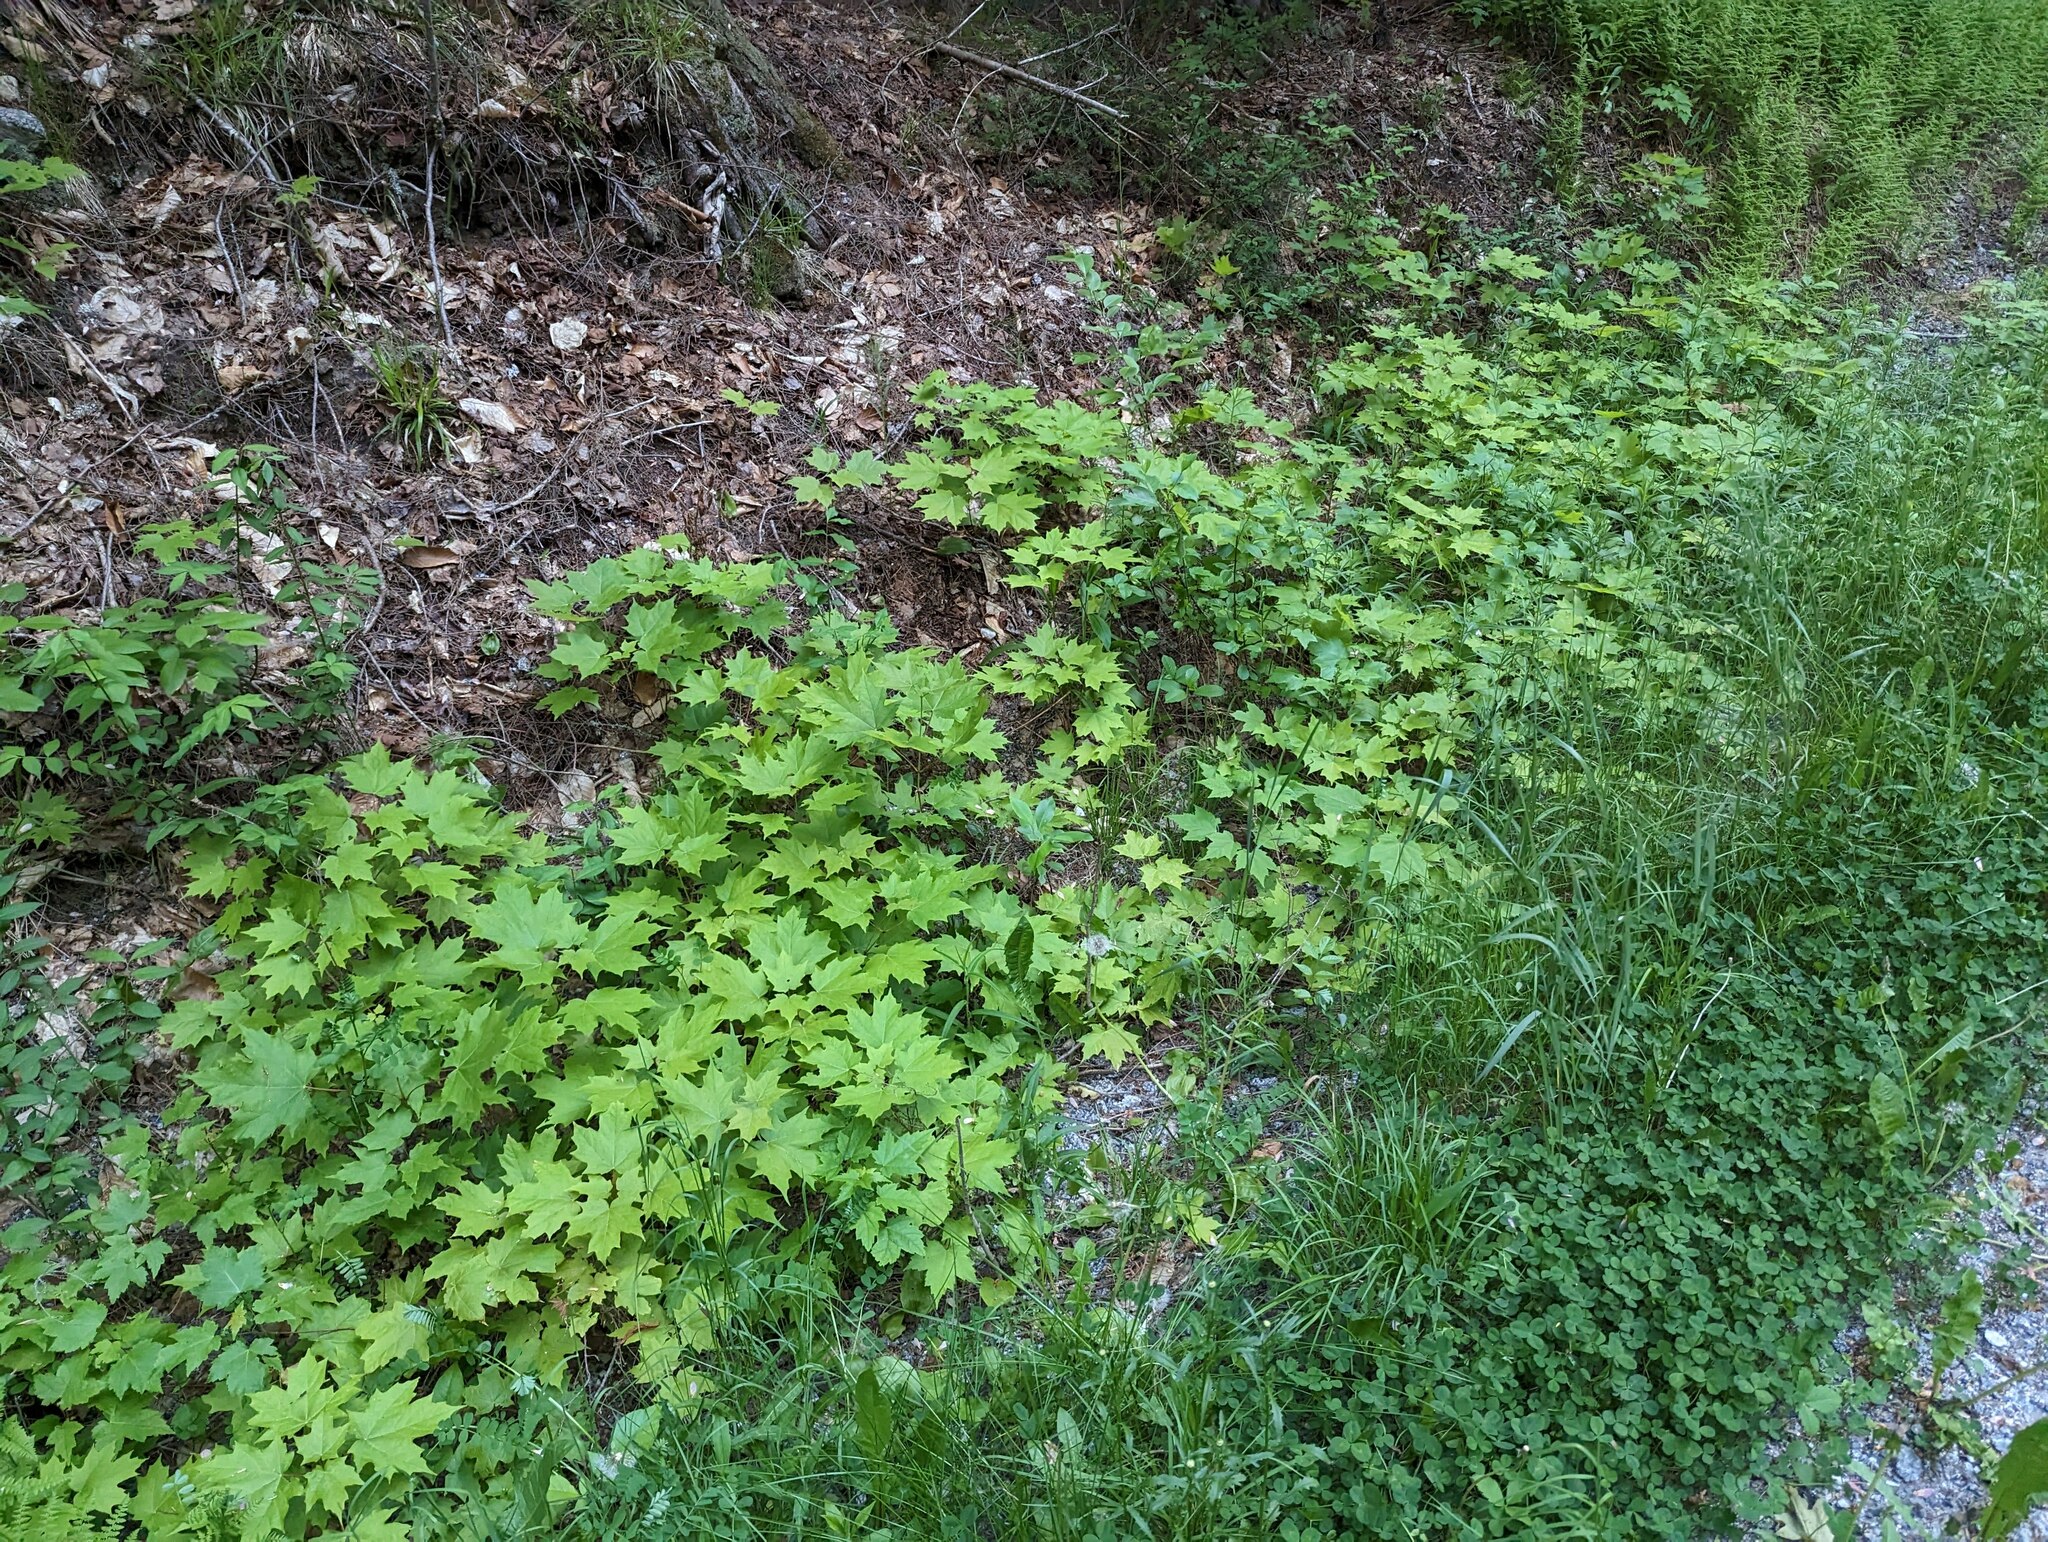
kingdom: Plantae
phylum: Tracheophyta
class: Magnoliopsida
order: Sapindales
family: Sapindaceae
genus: Acer
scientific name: Acer saccharum
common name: Sugar maple
